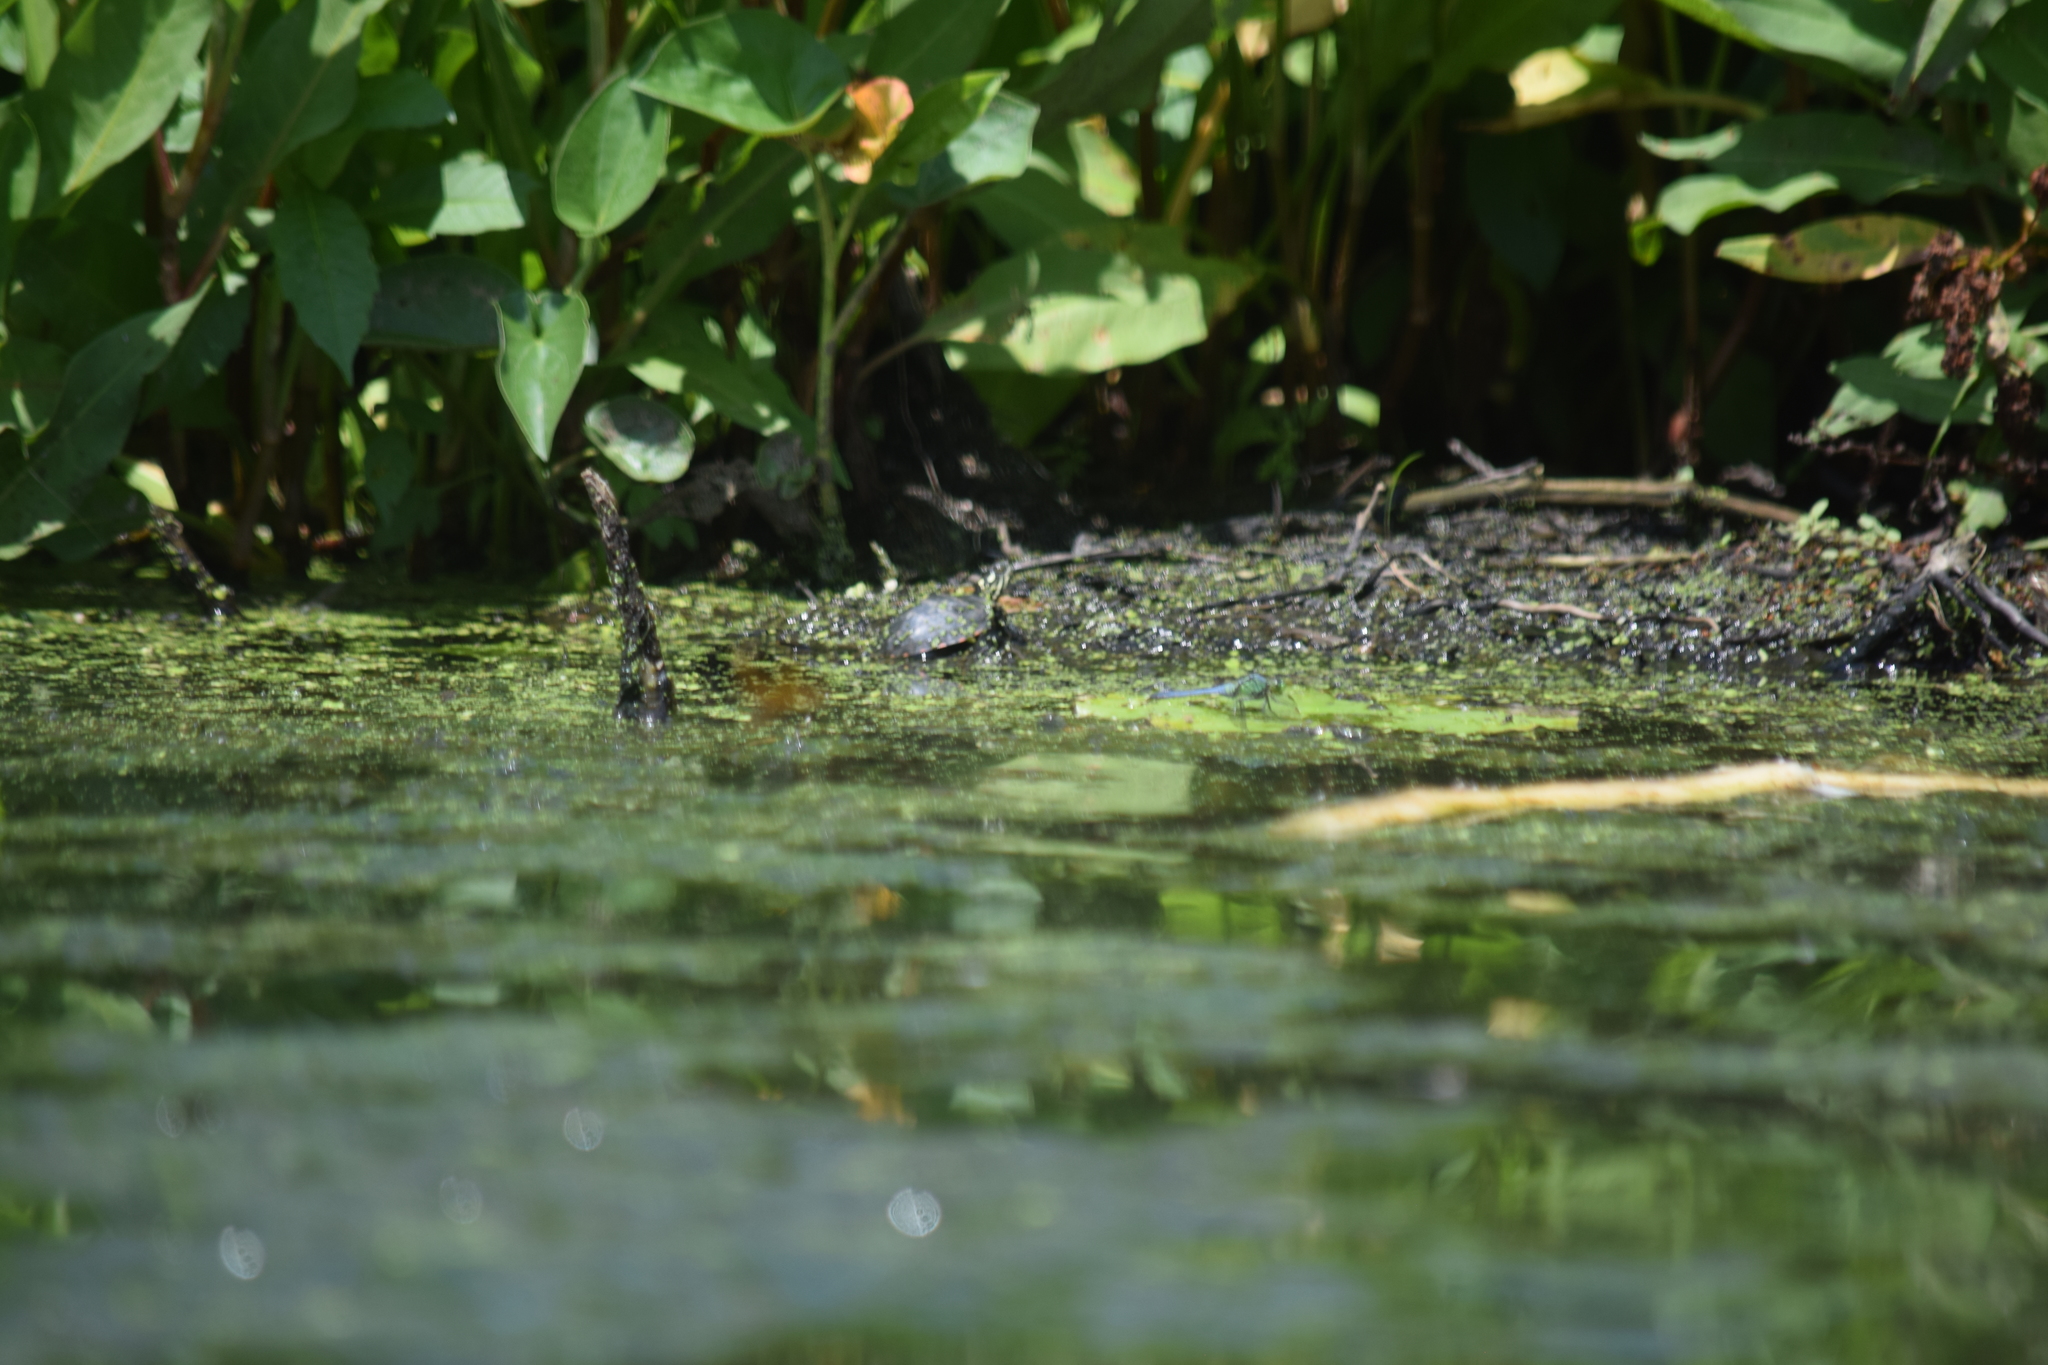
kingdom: Animalia
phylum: Chordata
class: Testudines
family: Emydidae
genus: Chrysemys
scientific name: Chrysemys picta
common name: Painted turtle
